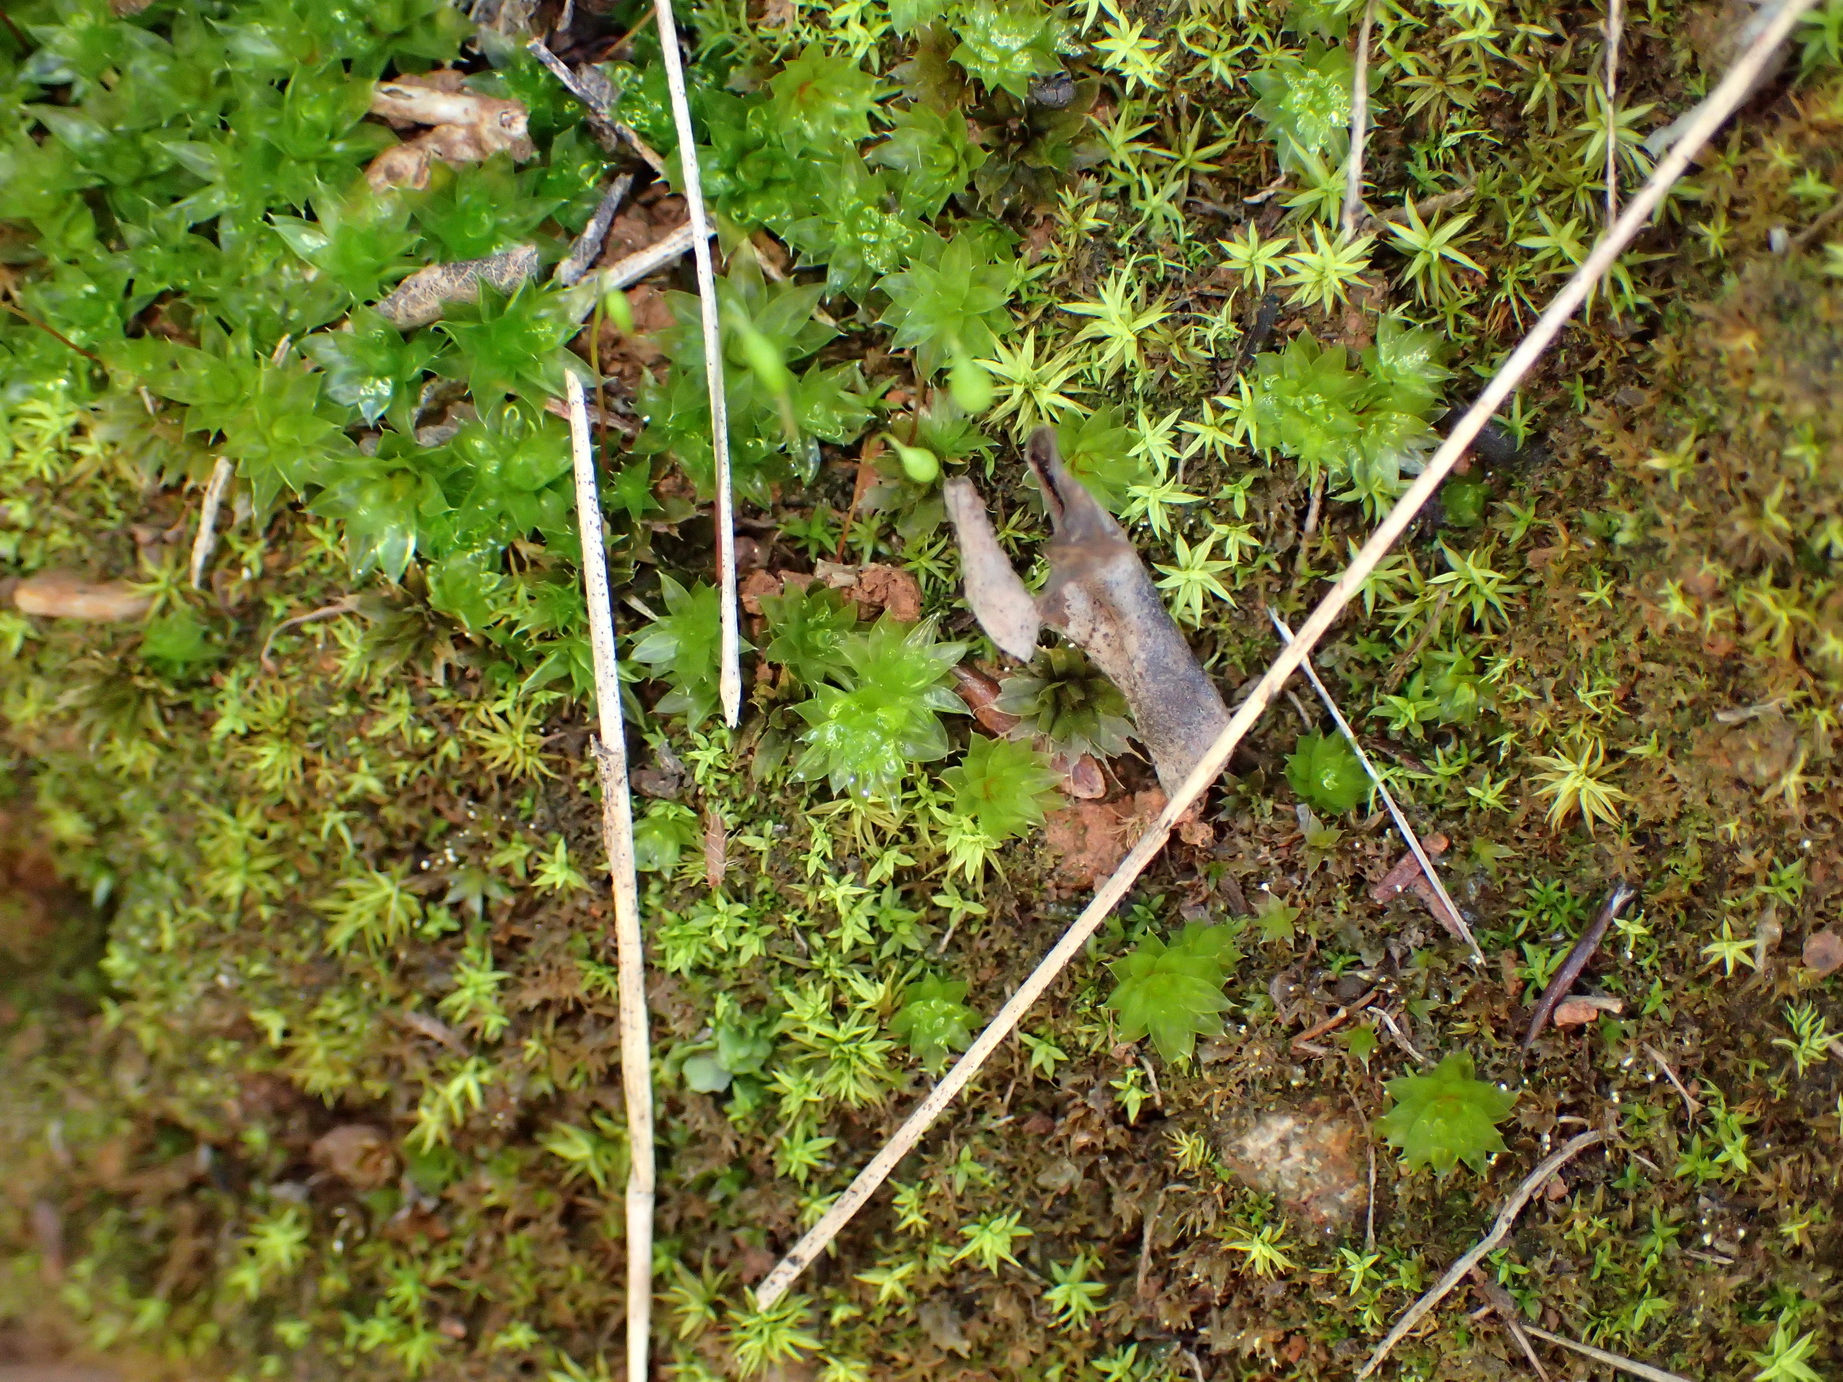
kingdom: Plantae
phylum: Bryophyta
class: Bryopsida
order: Bryales
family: Bryaceae
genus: Rosulabryum
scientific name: Rosulabryum canariense
